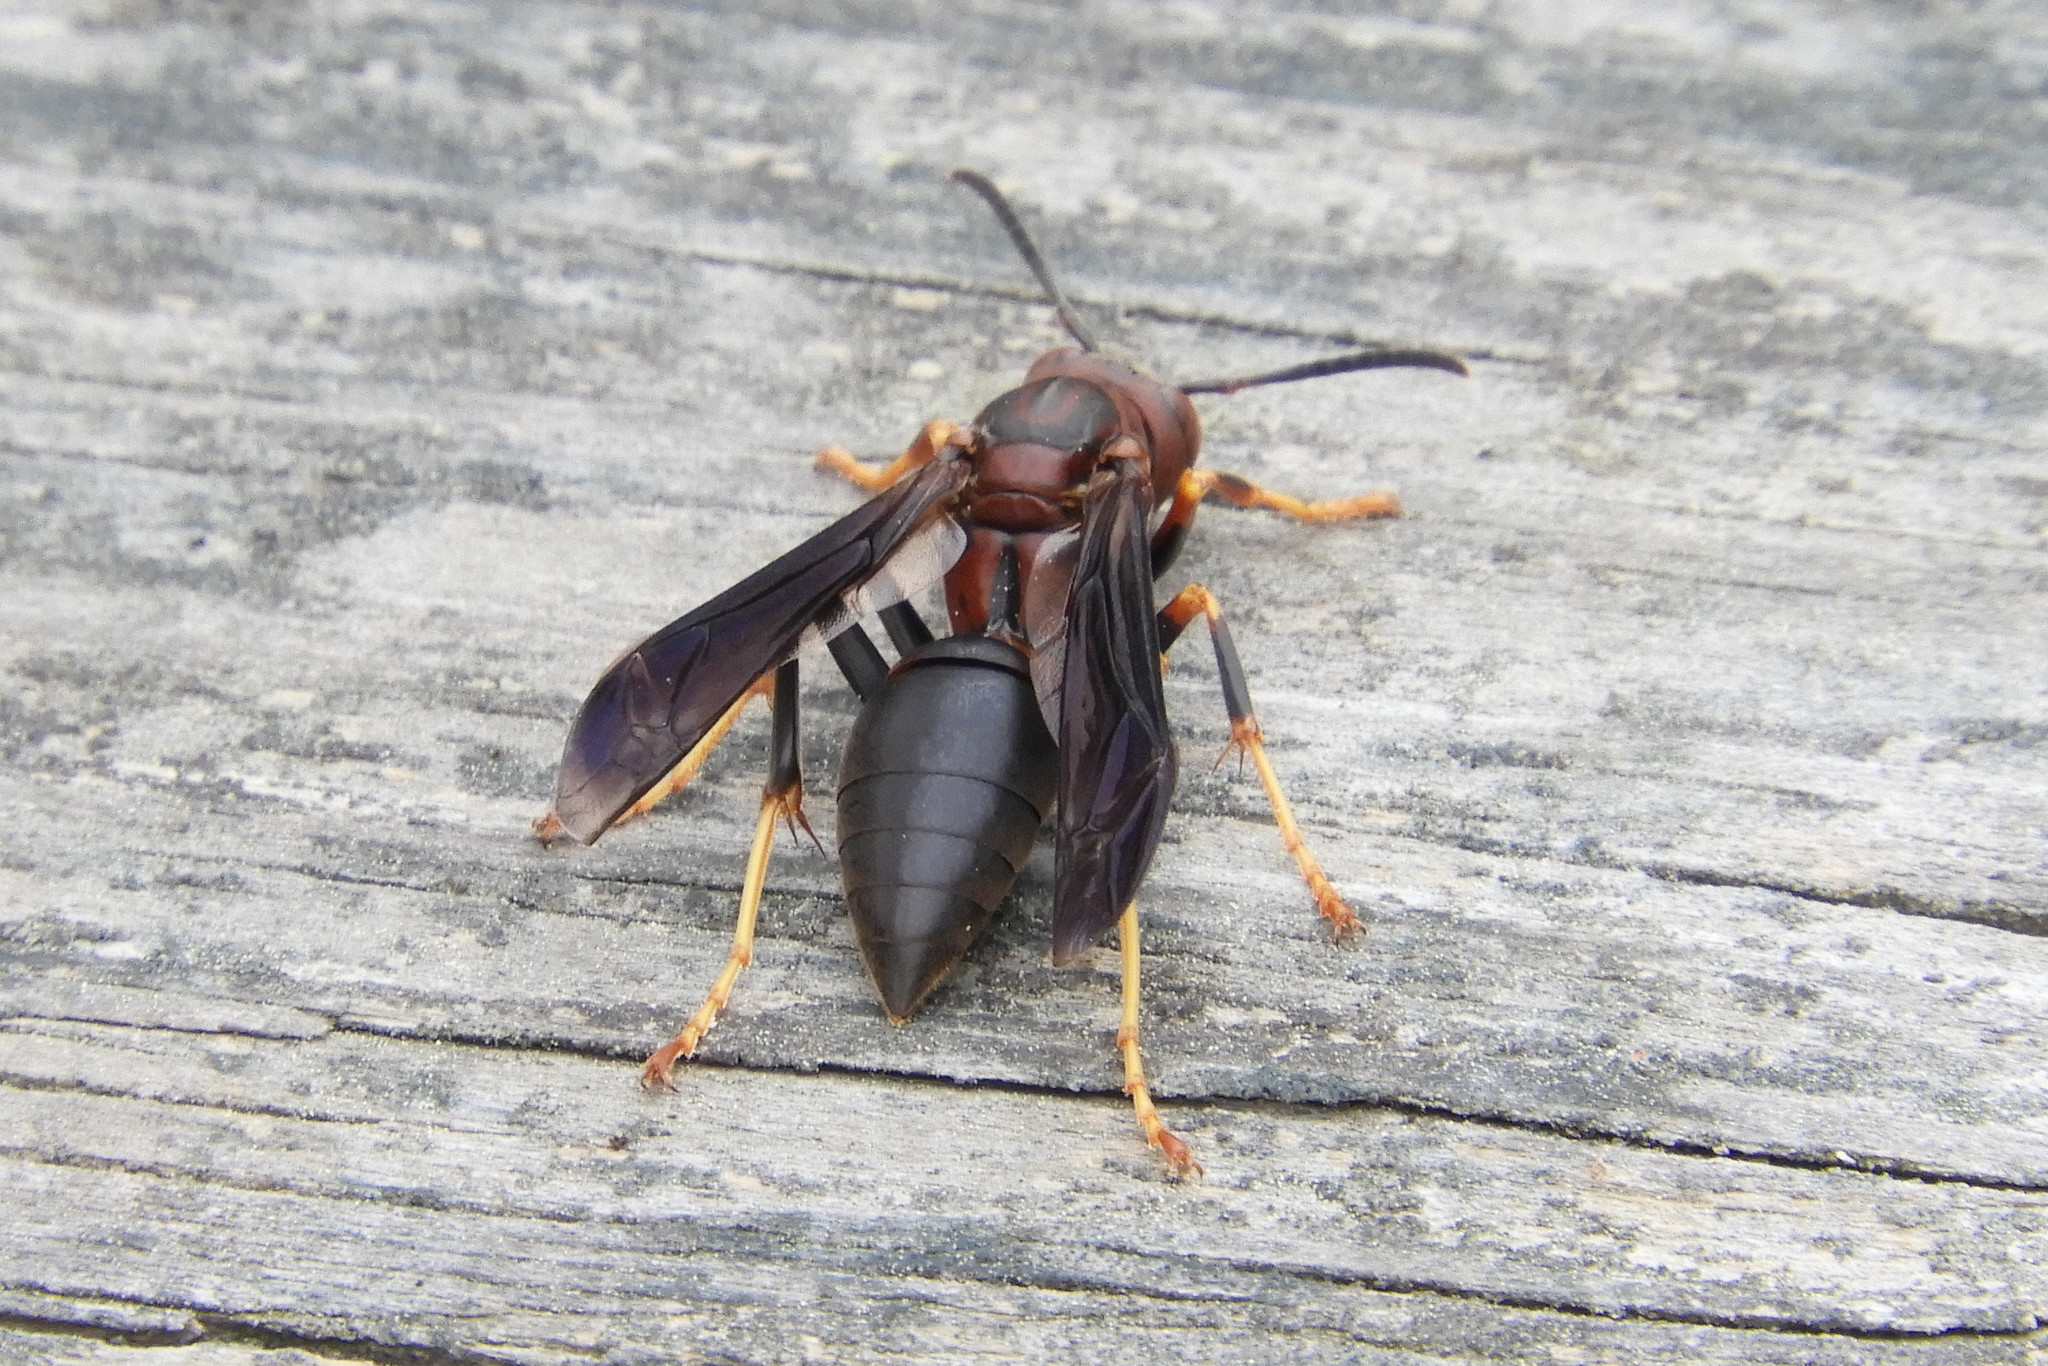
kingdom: Animalia
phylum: Arthropoda
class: Insecta
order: Hymenoptera
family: Eumenidae
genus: Polistes
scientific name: Polistes metricus
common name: Metric paper wasp
